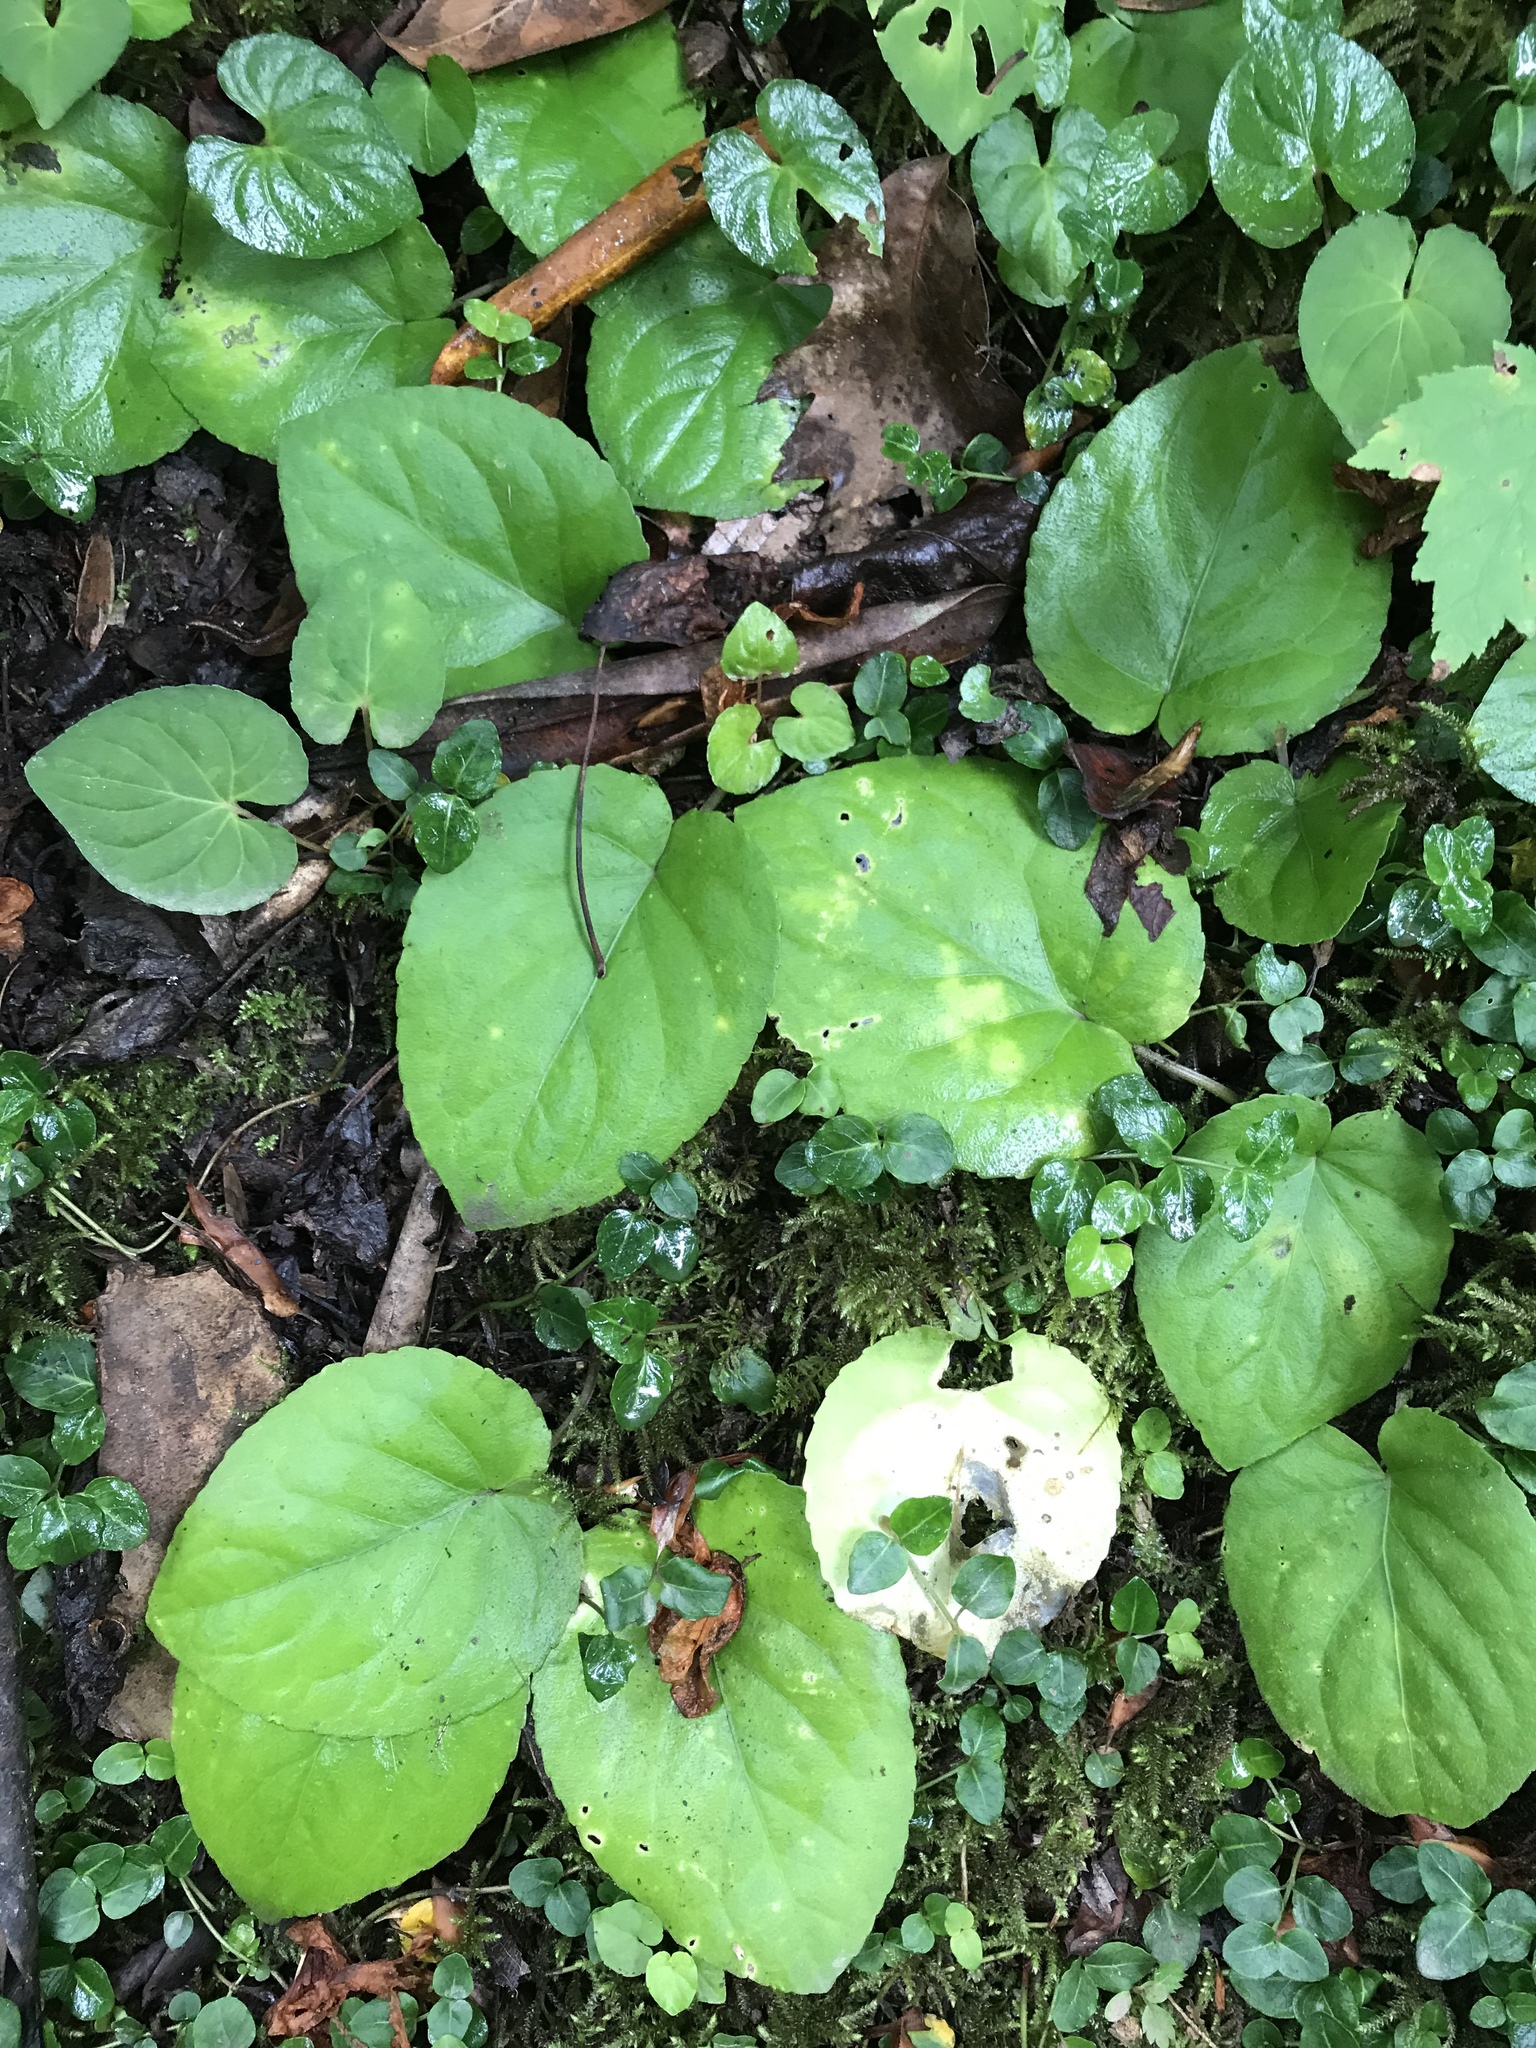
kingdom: Plantae
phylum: Tracheophyta
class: Magnoliopsida
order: Malpighiales
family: Violaceae
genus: Viola
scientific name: Viola rotundifolia
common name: Early yellow violet
